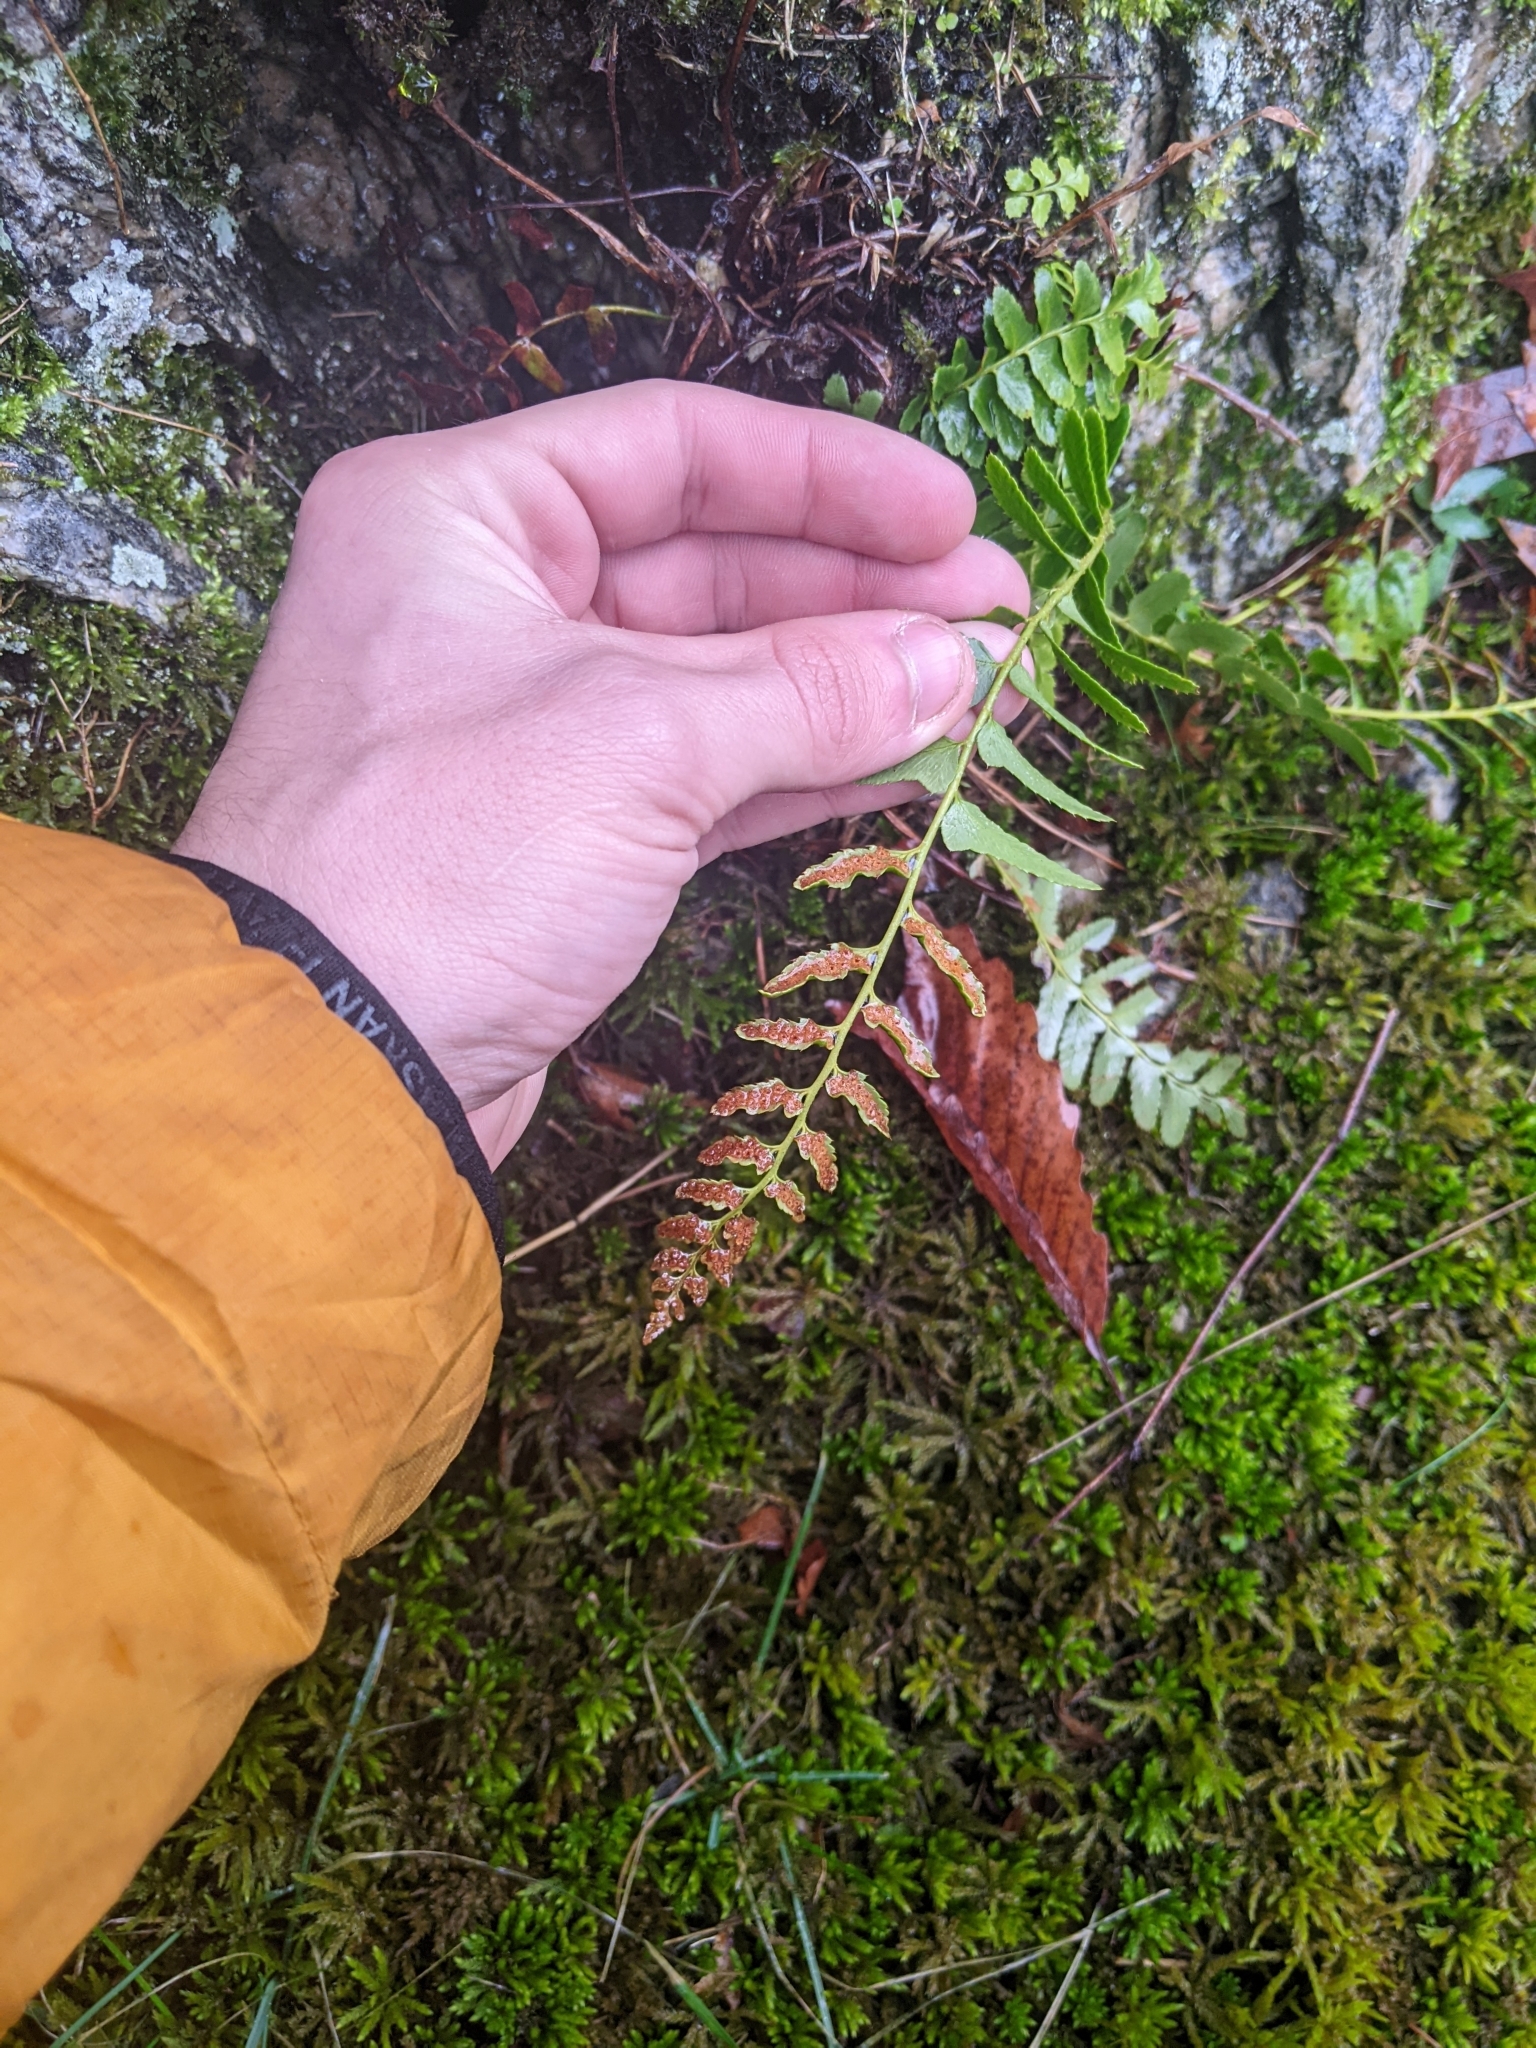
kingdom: Plantae
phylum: Tracheophyta
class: Polypodiopsida
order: Polypodiales
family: Dryopteridaceae
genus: Polystichum
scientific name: Polystichum acrostichoides
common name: Christmas fern
